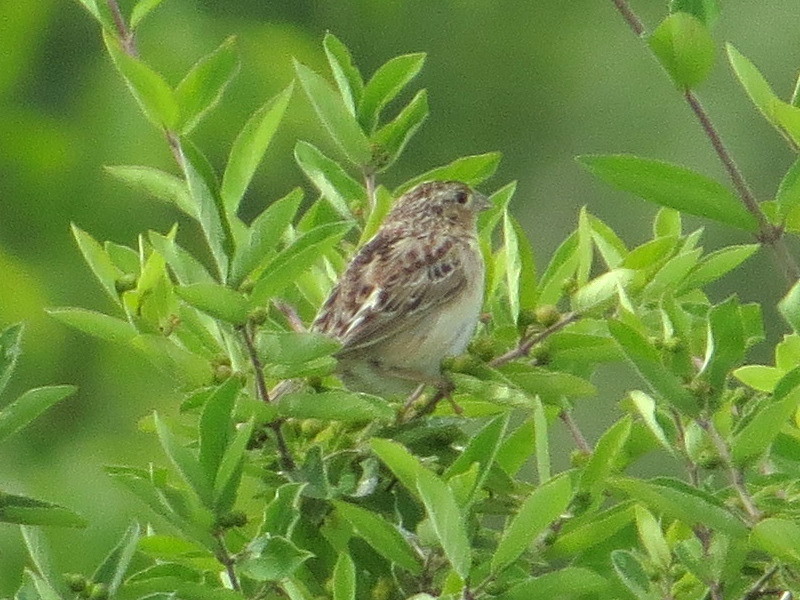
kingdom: Animalia
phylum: Chordata
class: Aves
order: Passeriformes
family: Passerellidae
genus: Ammodramus
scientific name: Ammodramus savannarum
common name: Grasshopper sparrow
